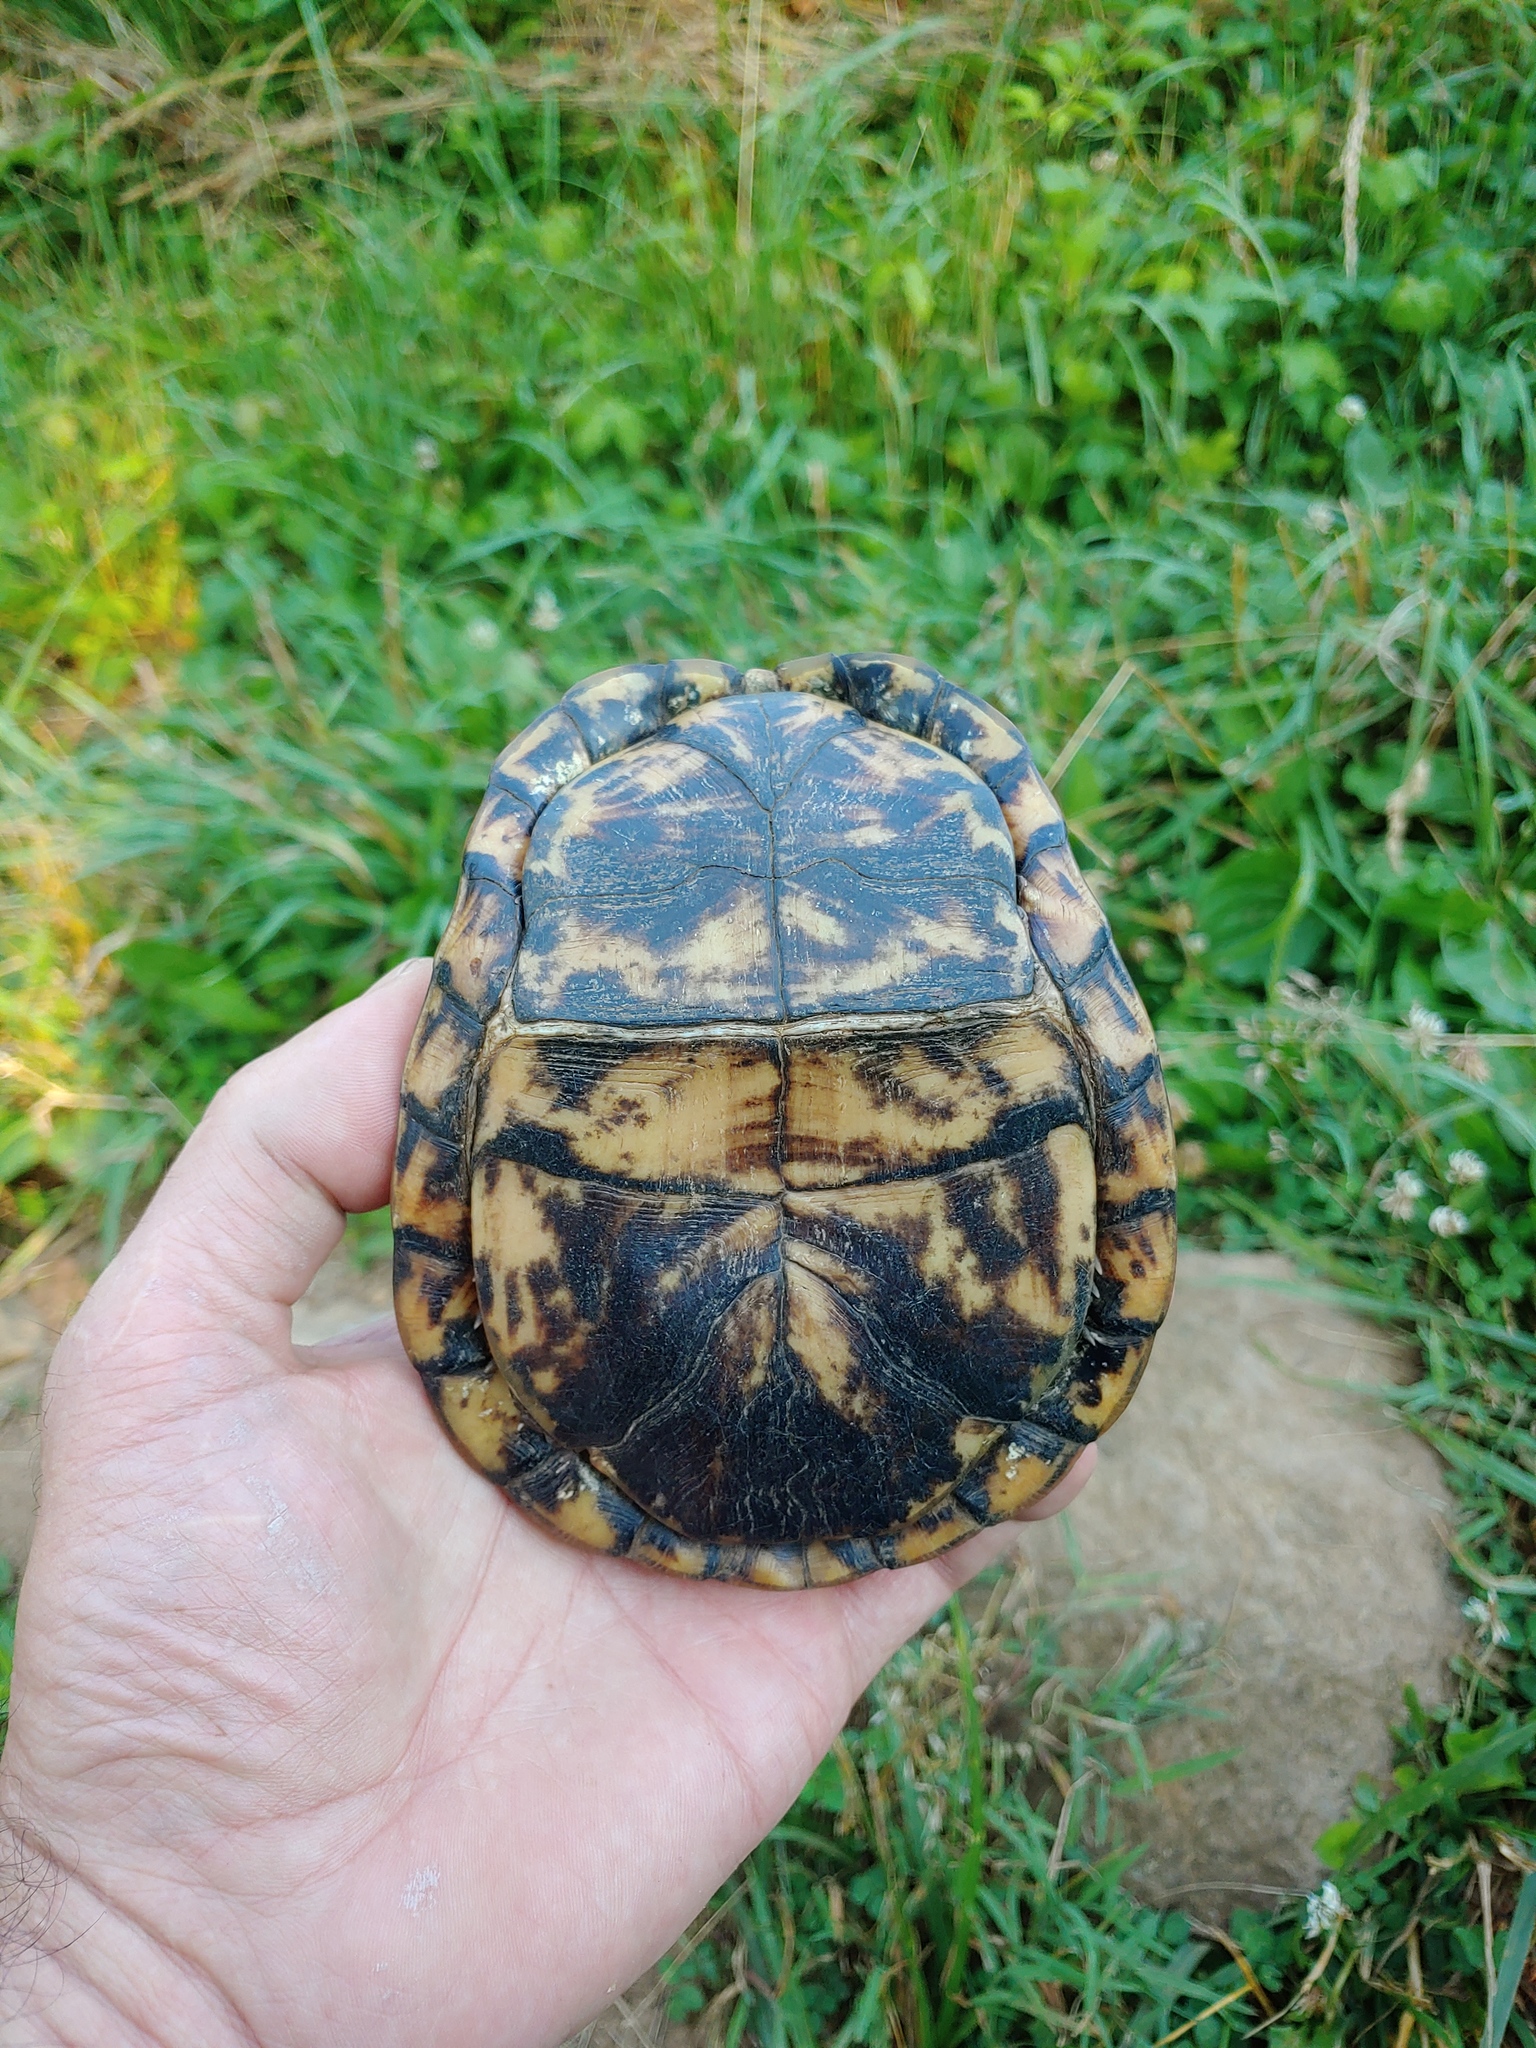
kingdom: Animalia
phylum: Chordata
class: Testudines
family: Emydidae
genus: Terrapene
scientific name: Terrapene carolina
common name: Common box turtle
